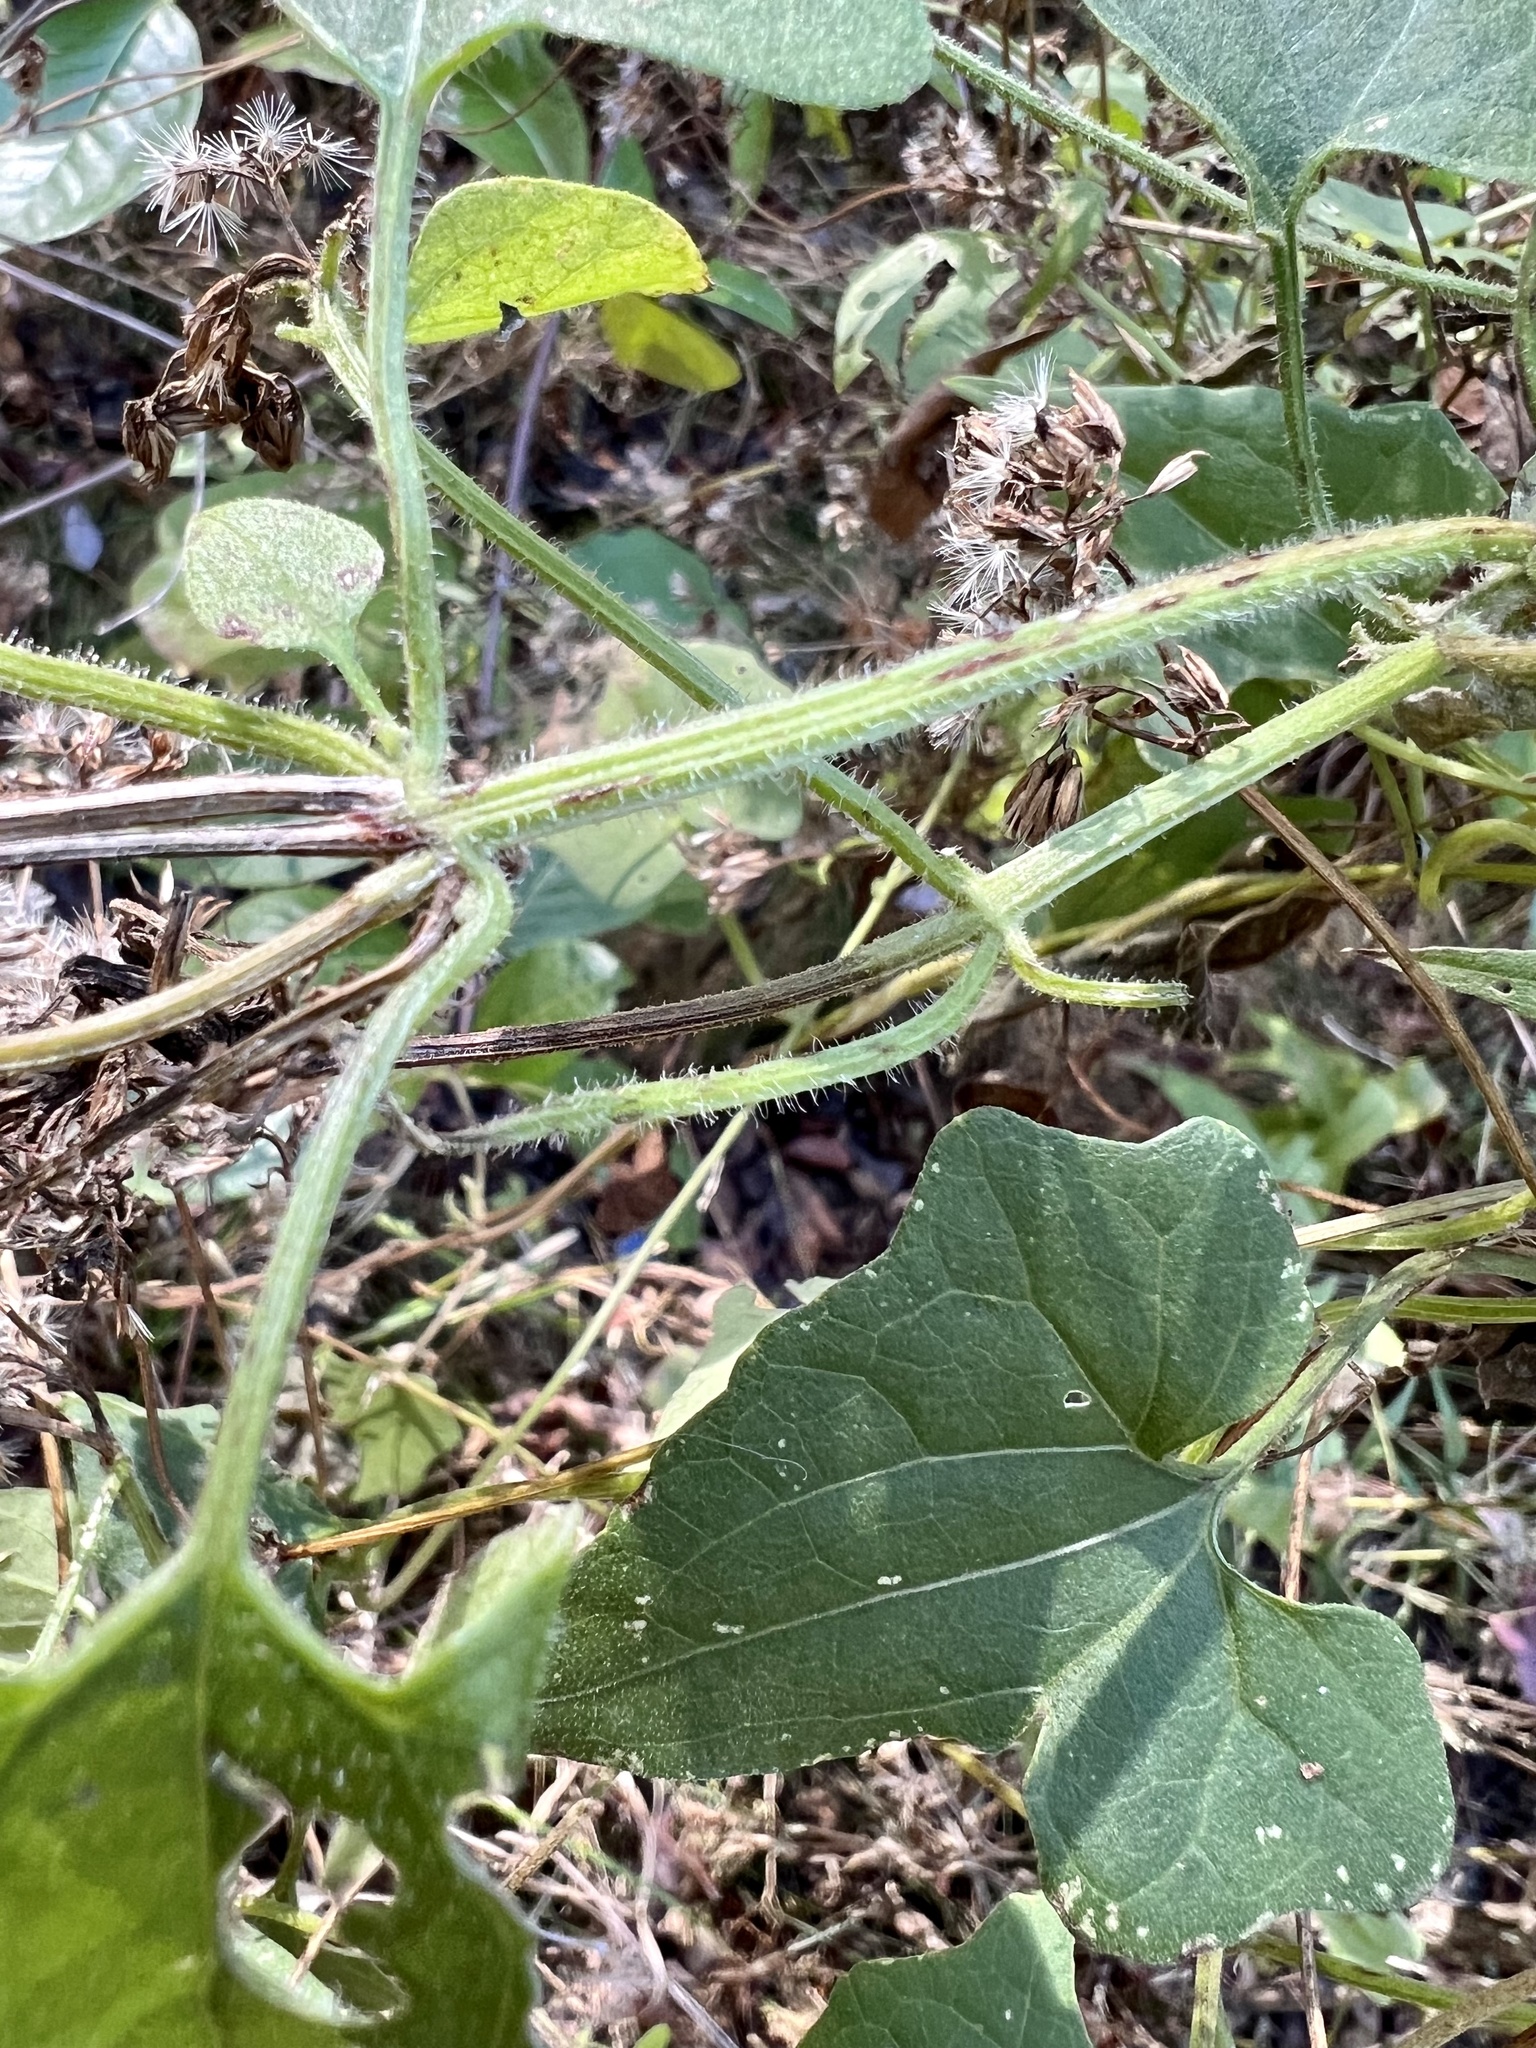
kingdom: Plantae
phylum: Tracheophyta
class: Magnoliopsida
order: Asterales
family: Asteraceae
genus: Mikania
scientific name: Mikania cordifolia
